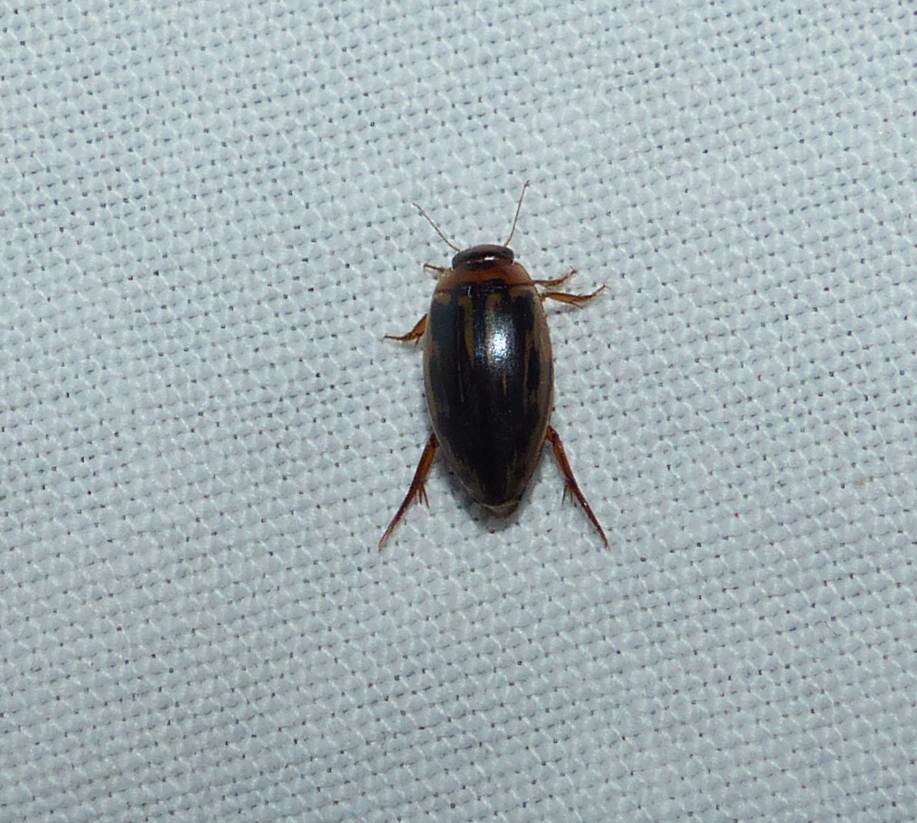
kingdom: Animalia
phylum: Arthropoda
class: Insecta
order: Coleoptera
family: Dytiscidae
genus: Coptotomus
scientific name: Coptotomus longulus
